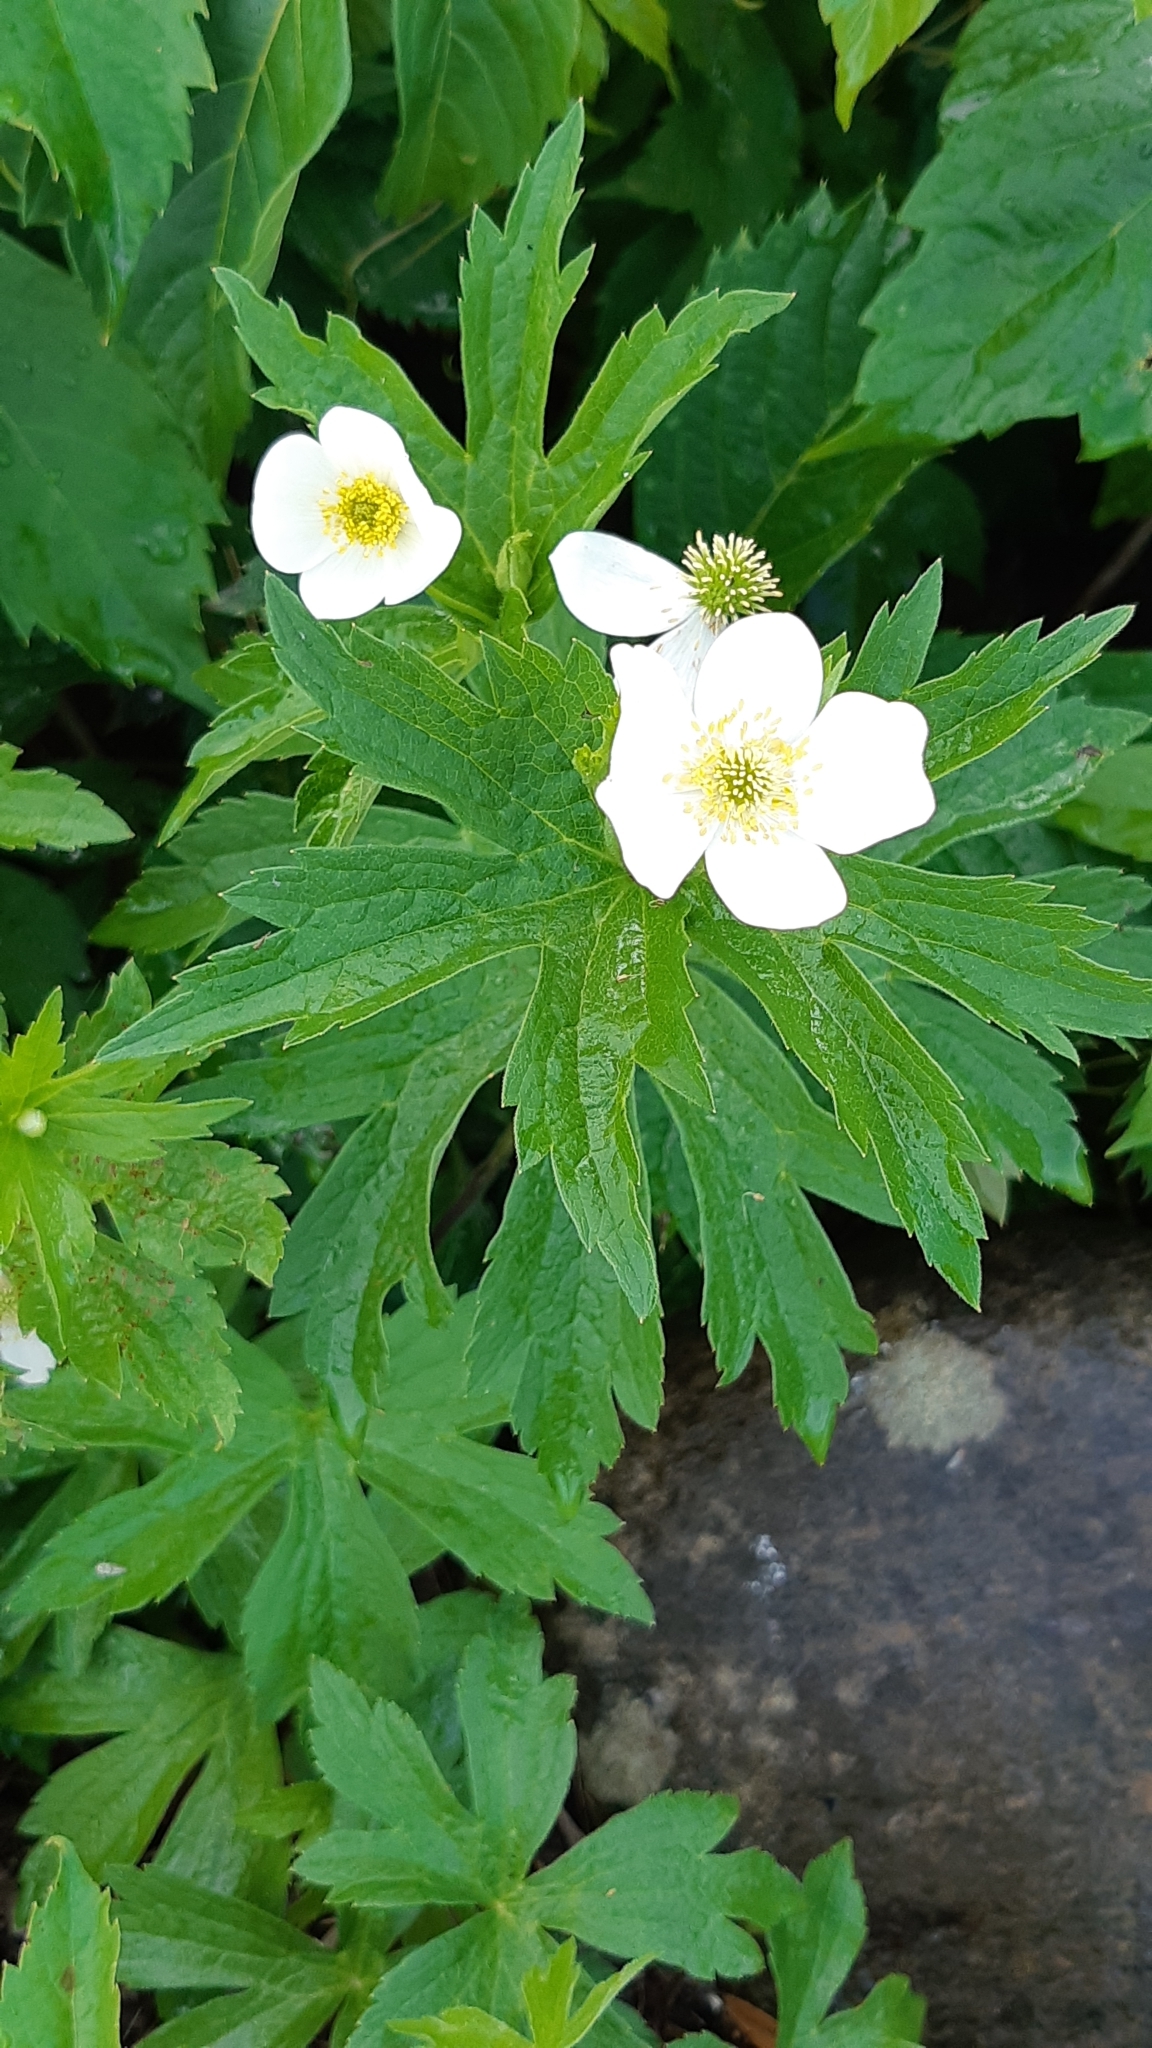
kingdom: Plantae
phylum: Tracheophyta
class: Magnoliopsida
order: Ranunculales
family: Ranunculaceae
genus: Anemonastrum
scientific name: Anemonastrum canadense
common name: Canada anemone
